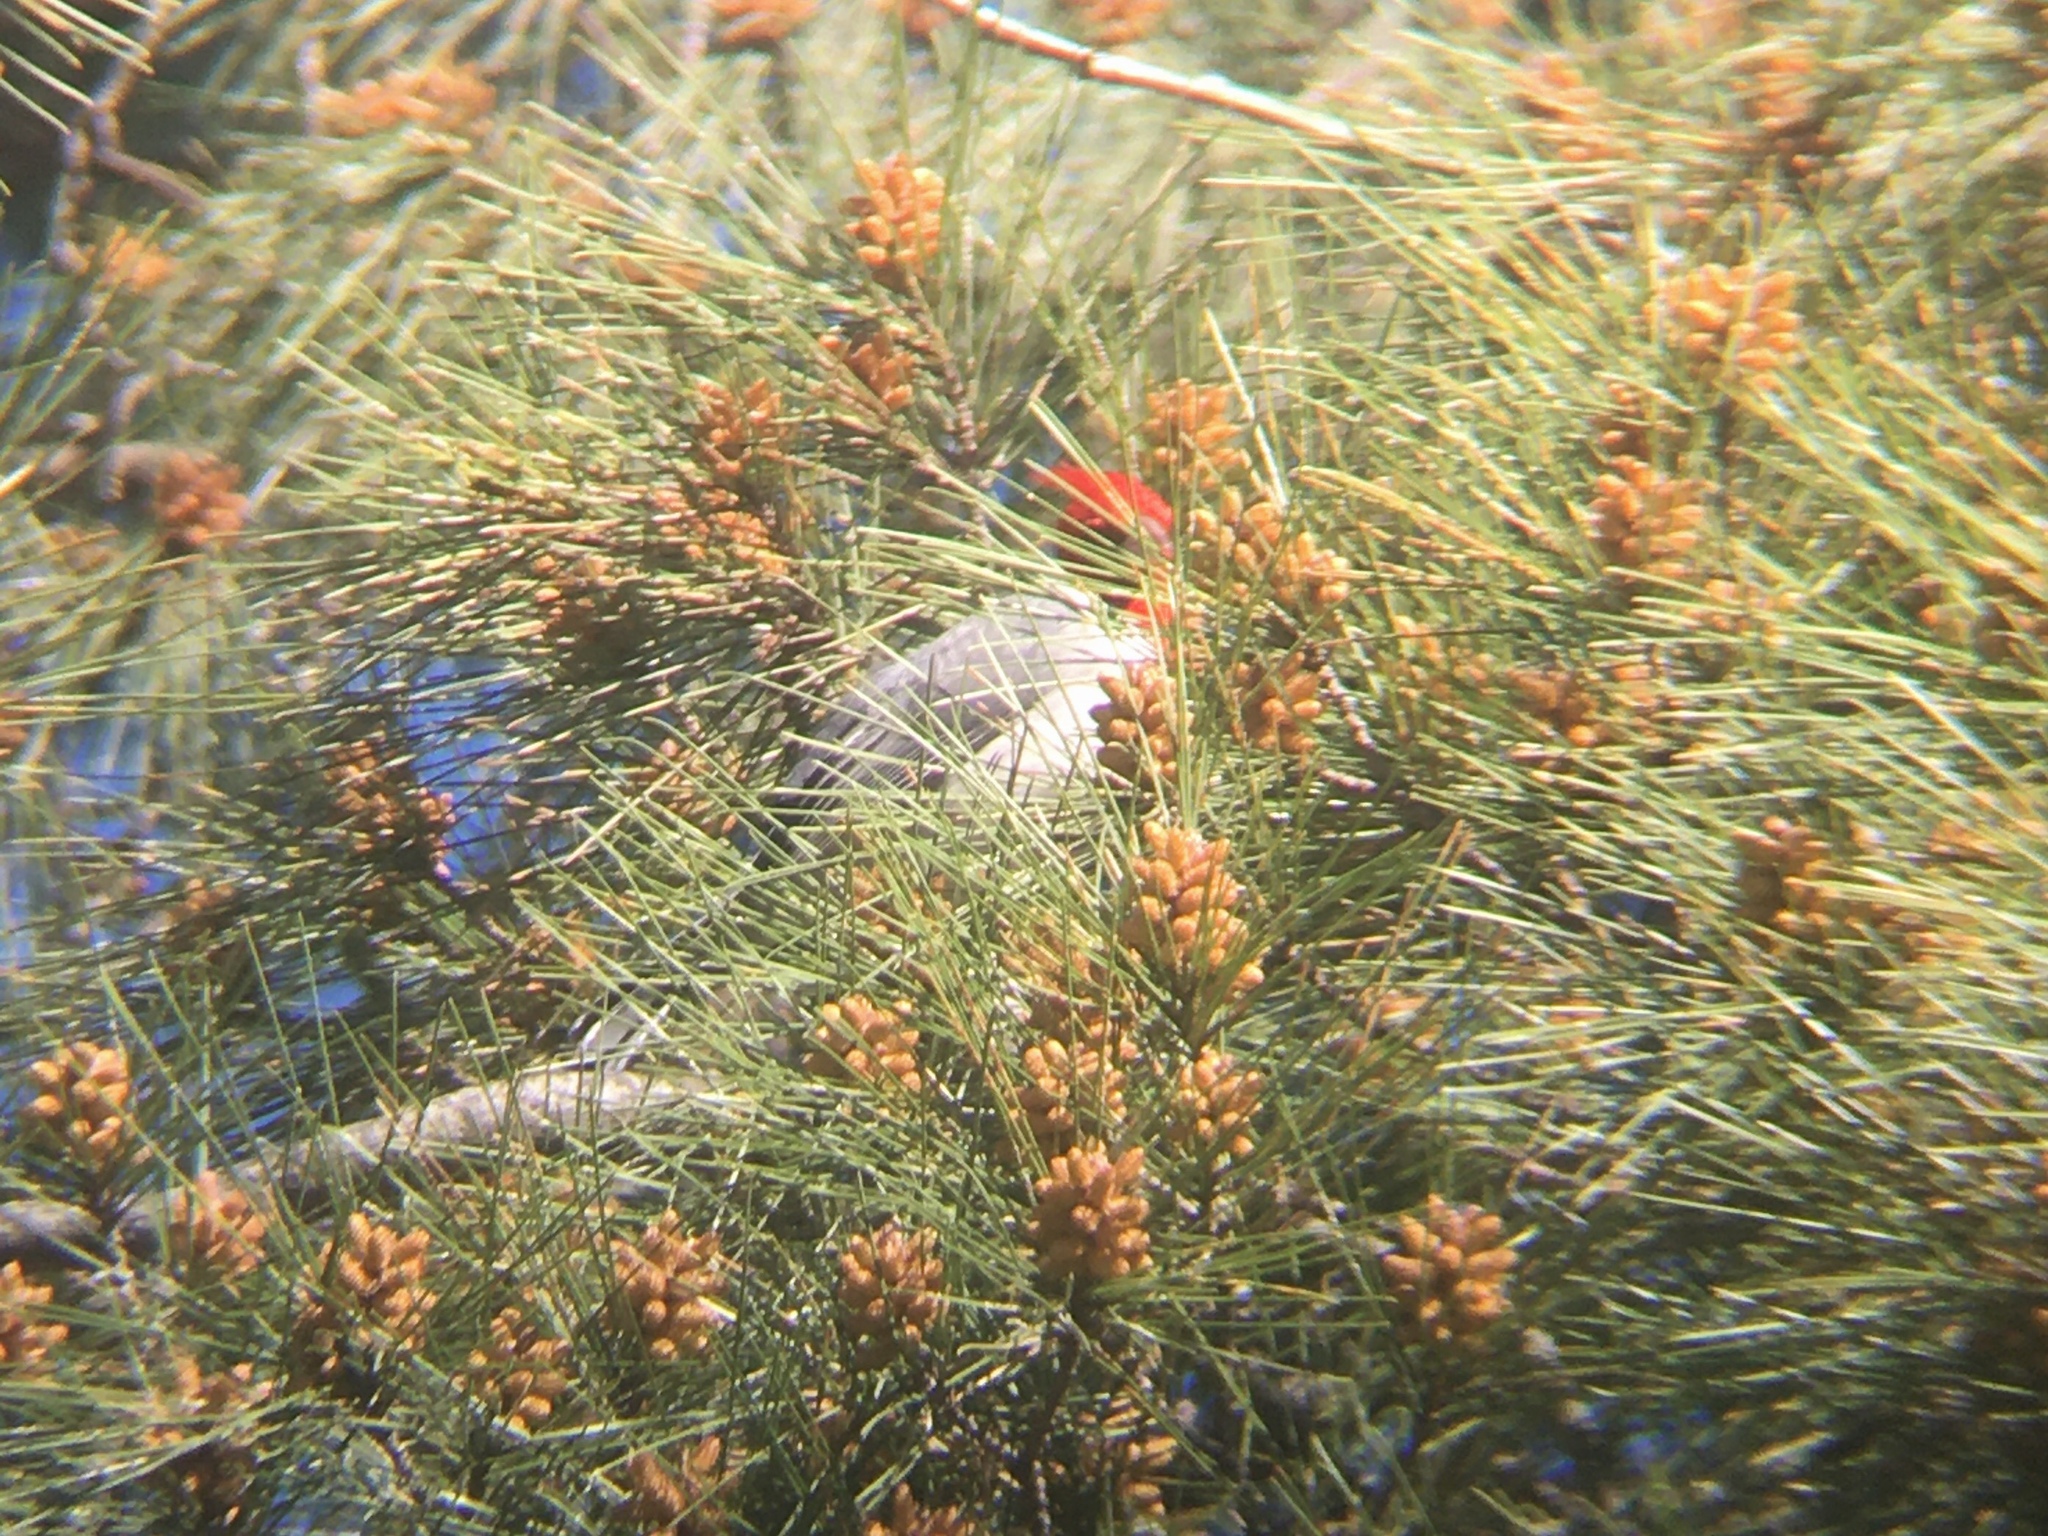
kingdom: Animalia
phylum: Chordata
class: Aves
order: Passeriformes
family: Thraupidae
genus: Paroaria
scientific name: Paroaria coronata
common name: Red-crested cardinal
